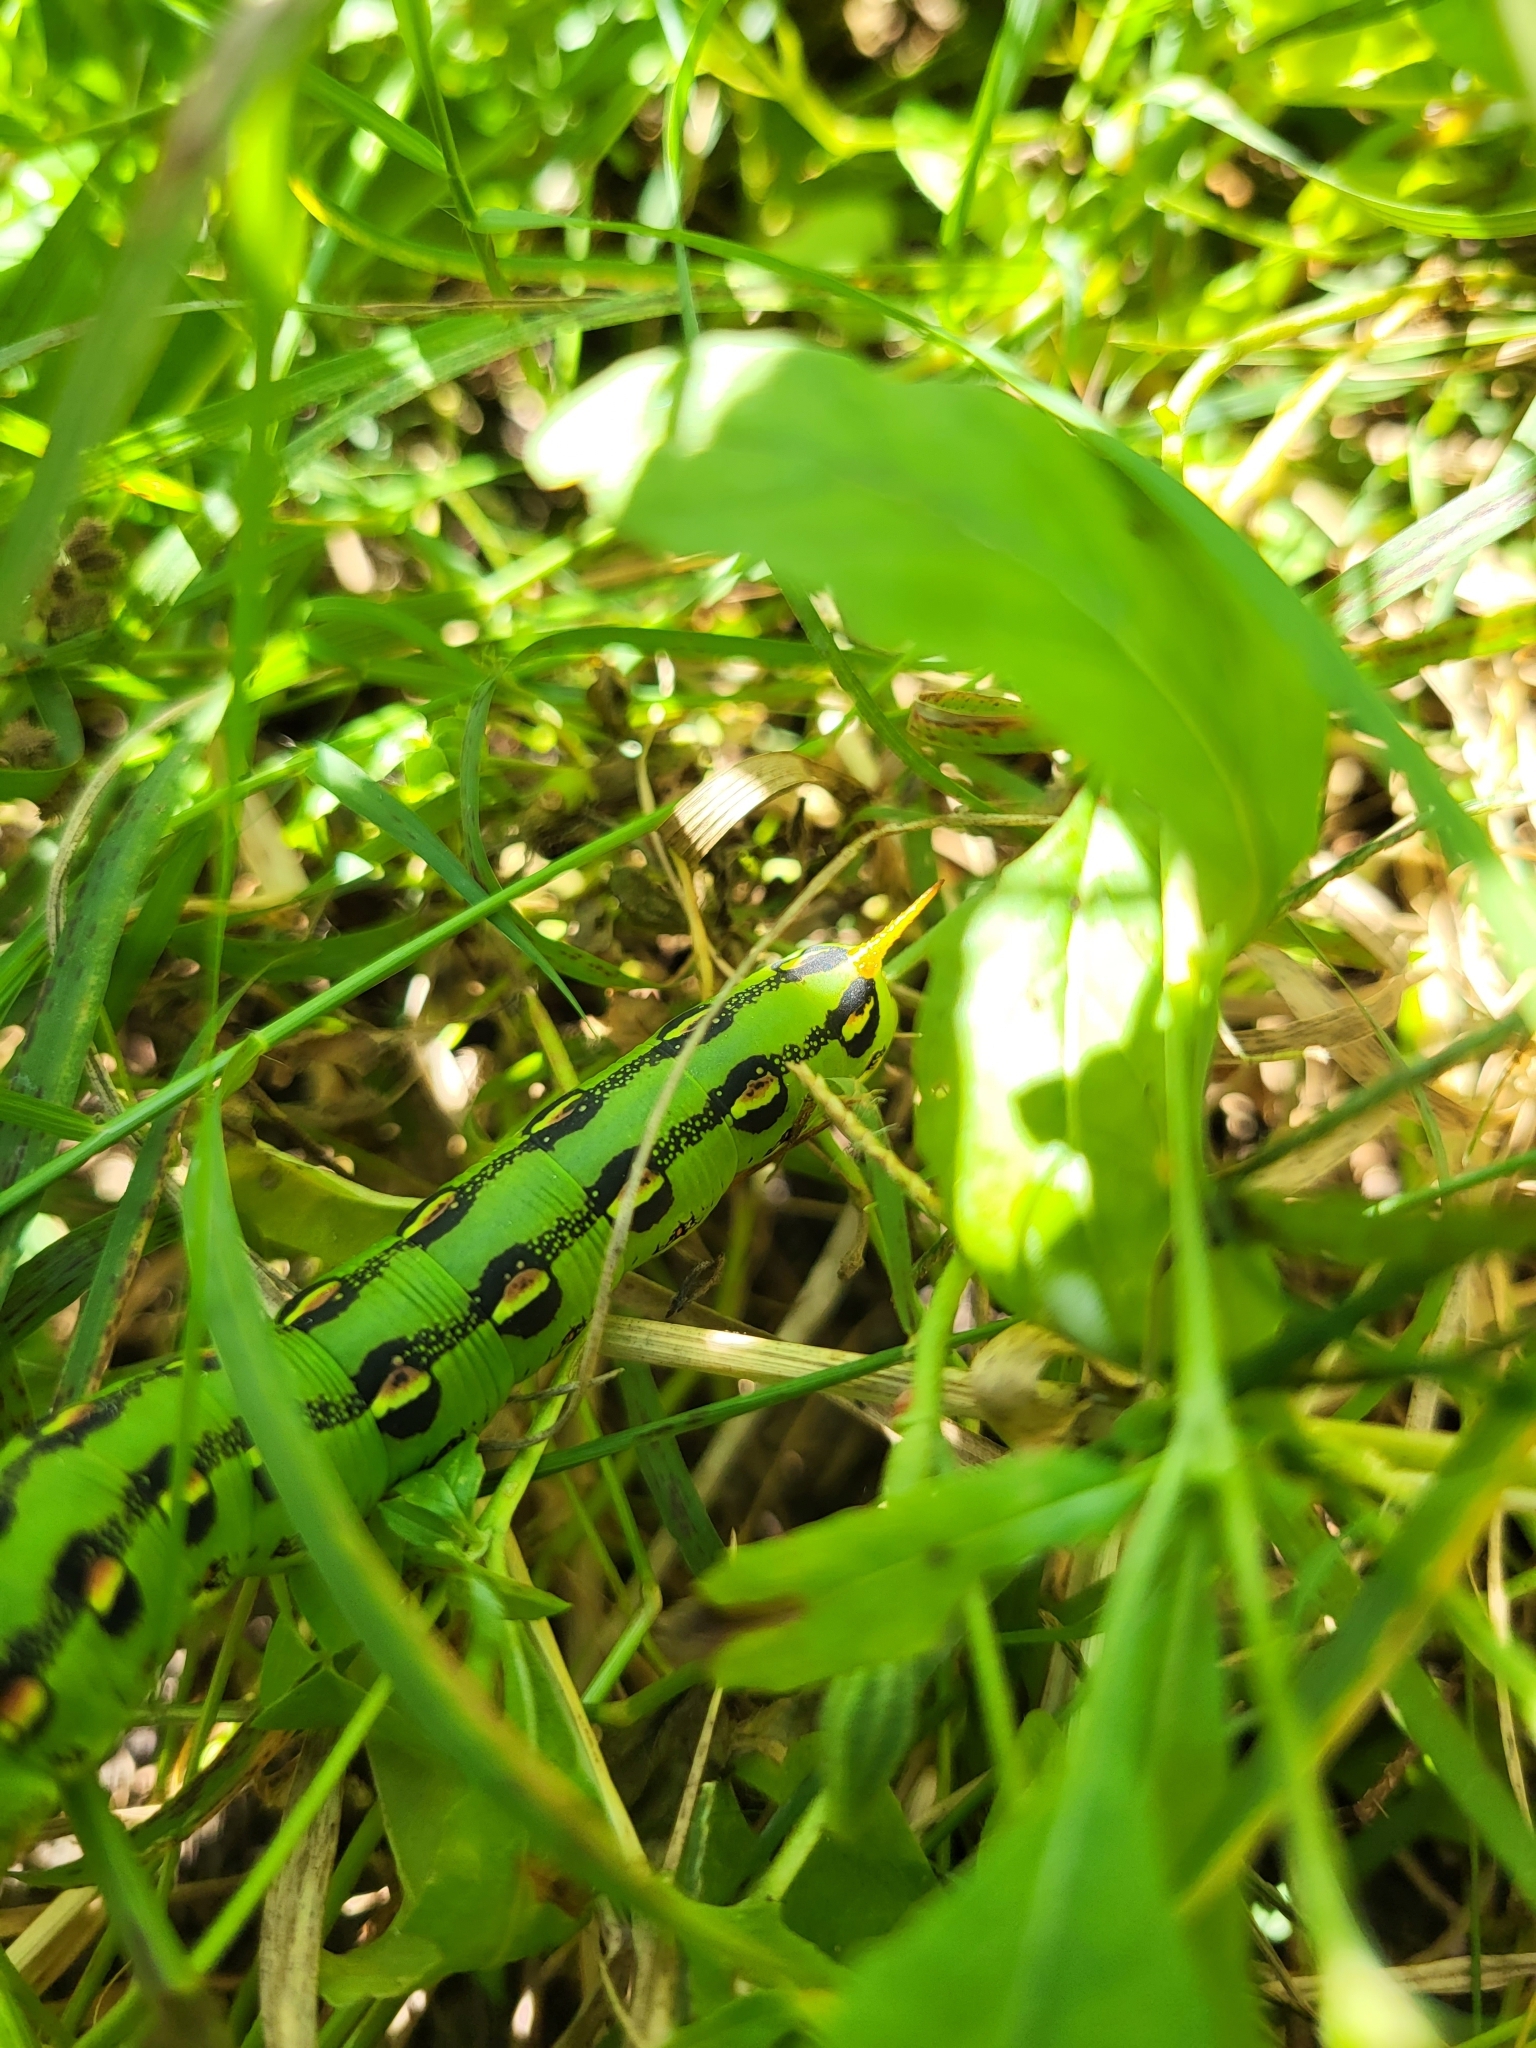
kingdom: Animalia
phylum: Arthropoda
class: Insecta
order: Lepidoptera
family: Sphingidae
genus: Hyles
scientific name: Hyles lineata
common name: White-lined sphinx
